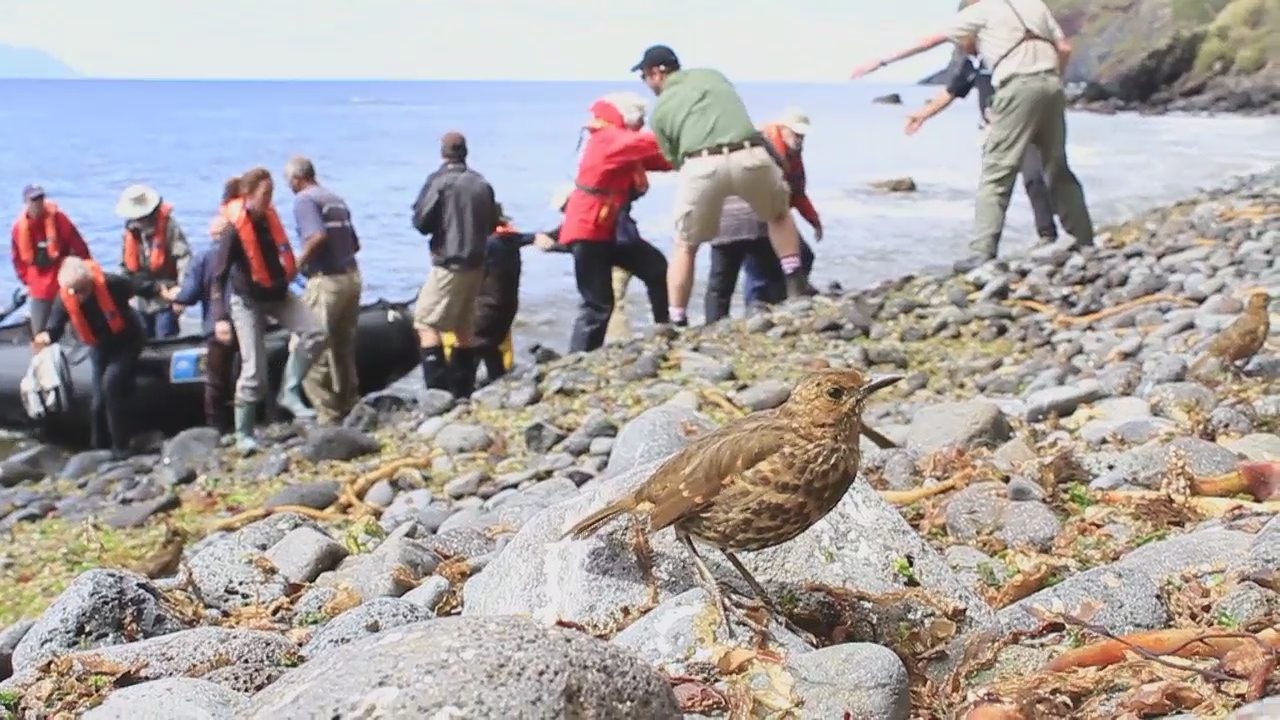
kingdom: Animalia
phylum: Chordata
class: Aves
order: Passeriformes
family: Turdidae
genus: Nesocichla
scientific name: Nesocichla eremita
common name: Tristan thrush
